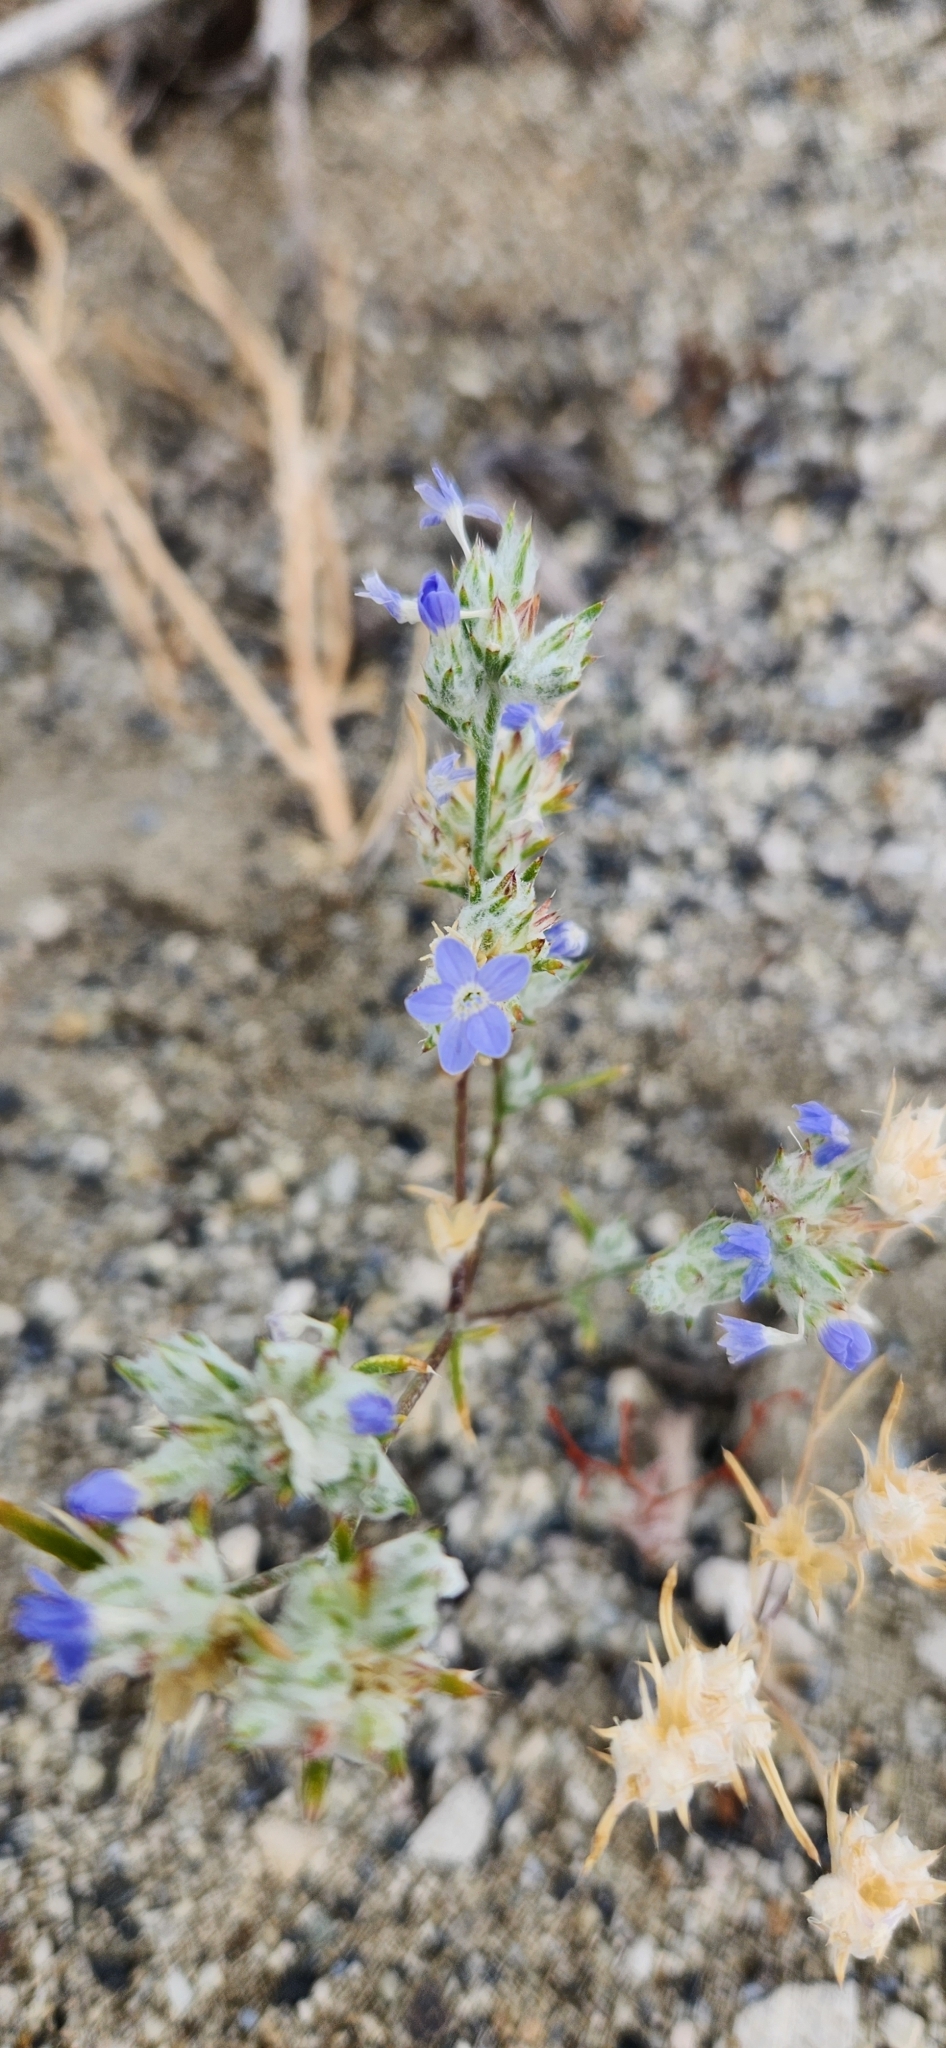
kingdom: Plantae
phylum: Tracheophyta
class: Magnoliopsida
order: Ericales
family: Polemoniaceae
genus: Eriastrum
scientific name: Eriastrum wilcoxii
